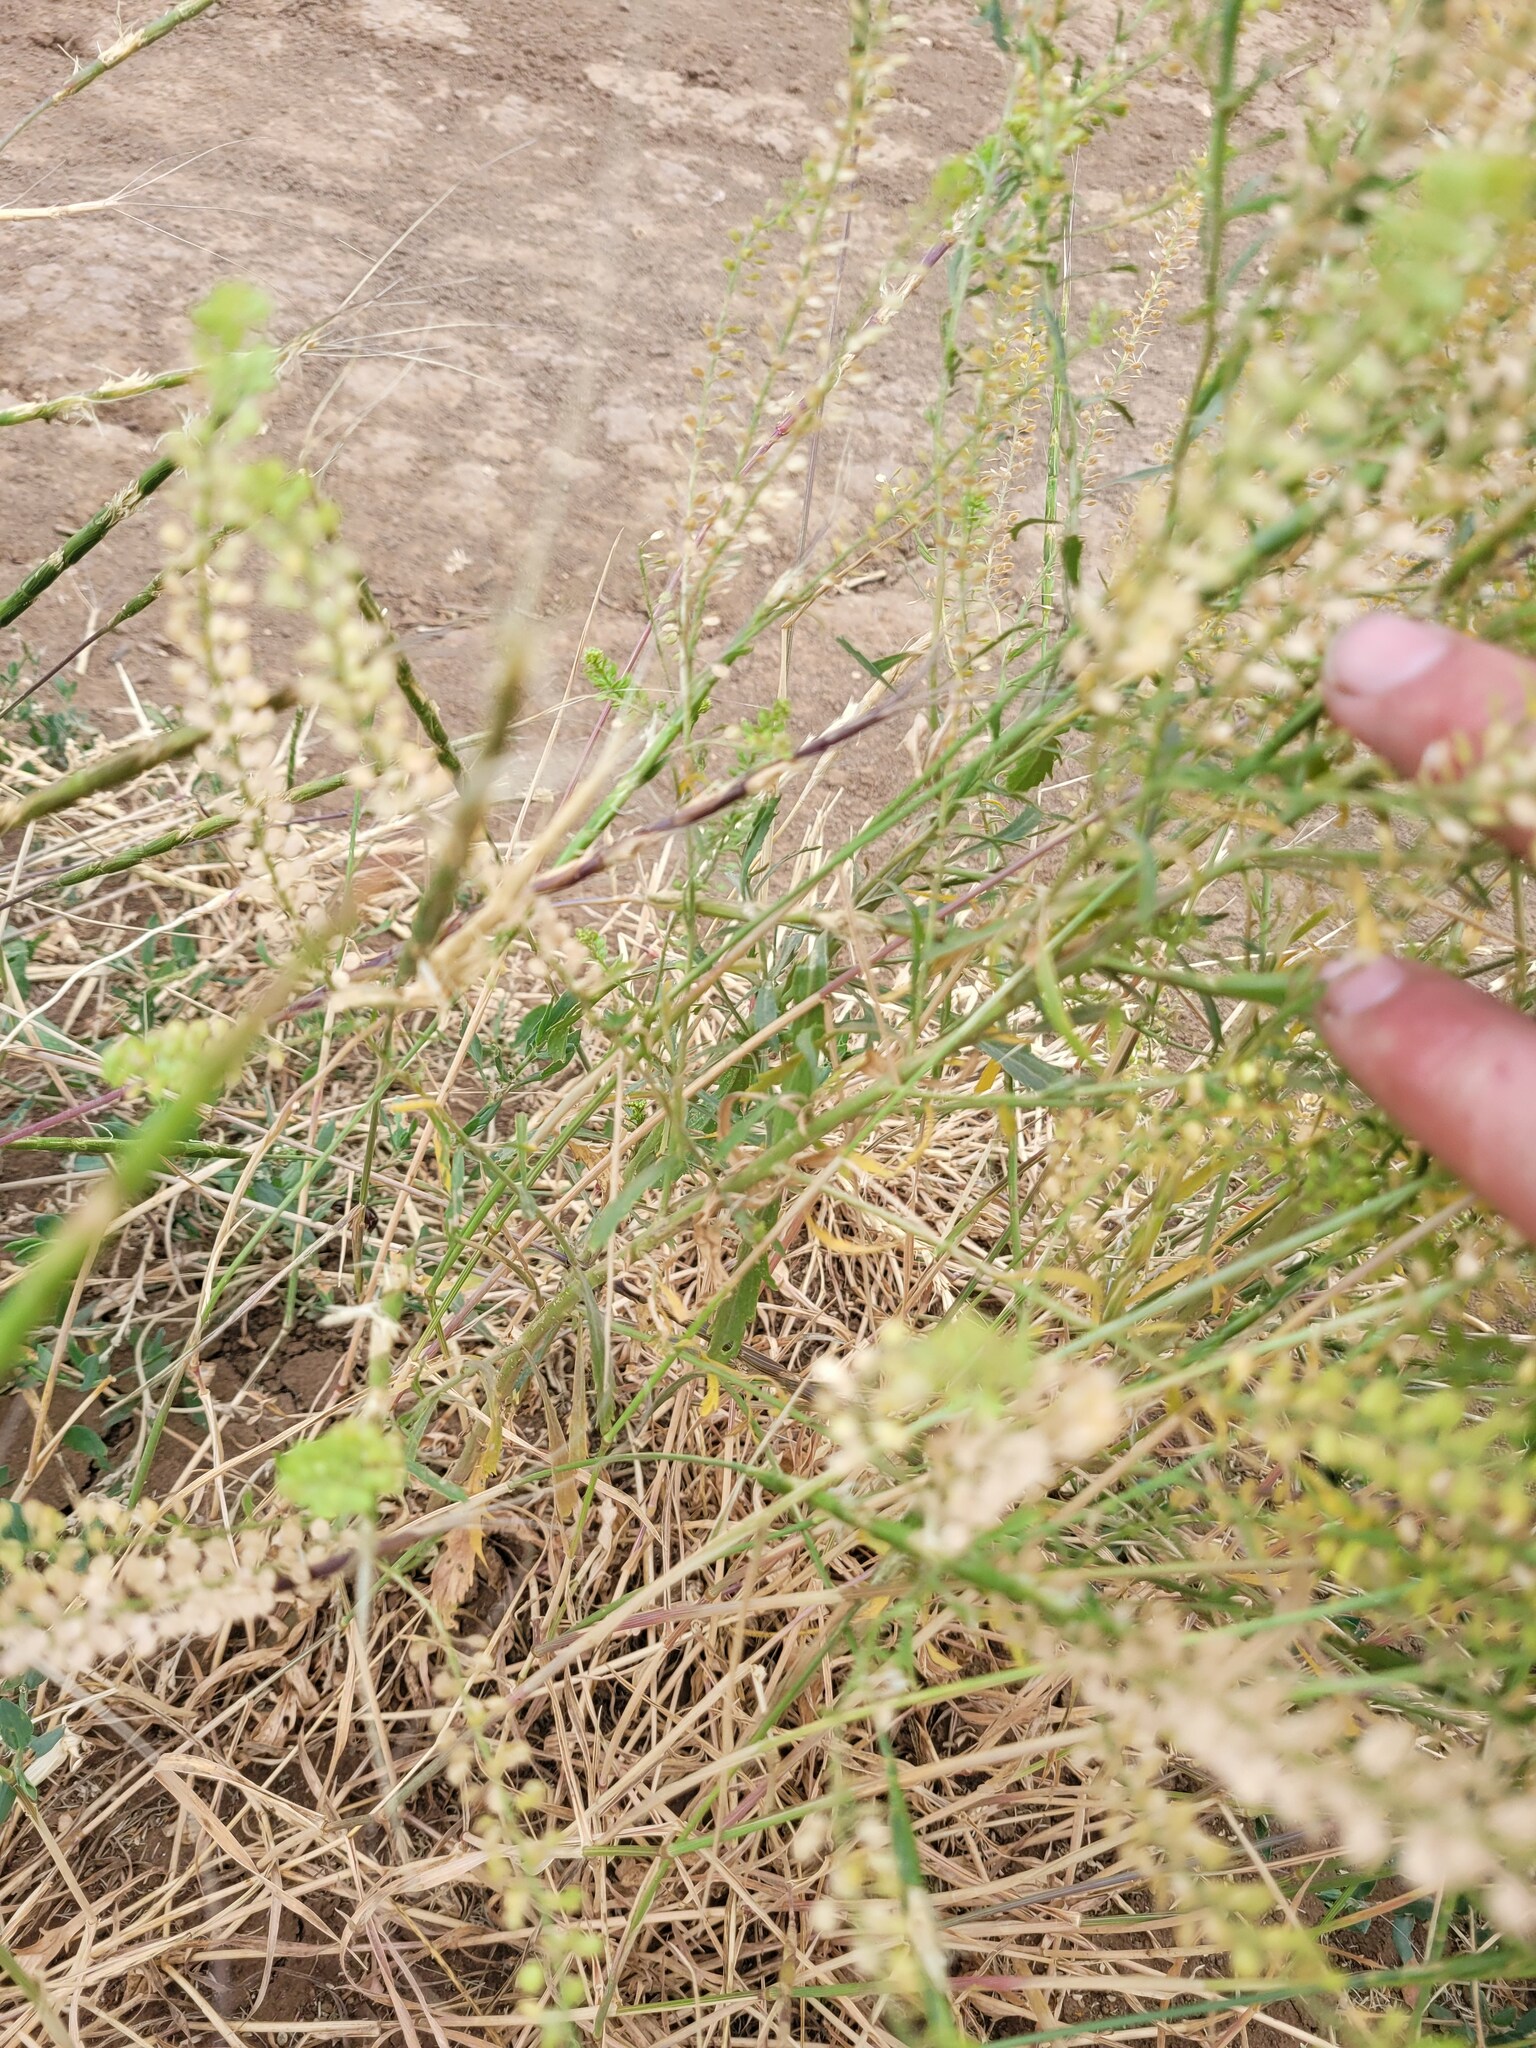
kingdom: Plantae
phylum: Tracheophyta
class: Magnoliopsida
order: Brassicales
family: Brassicaceae
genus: Lepidium
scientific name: Lepidium densiflorum
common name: Miner's pepperwort
